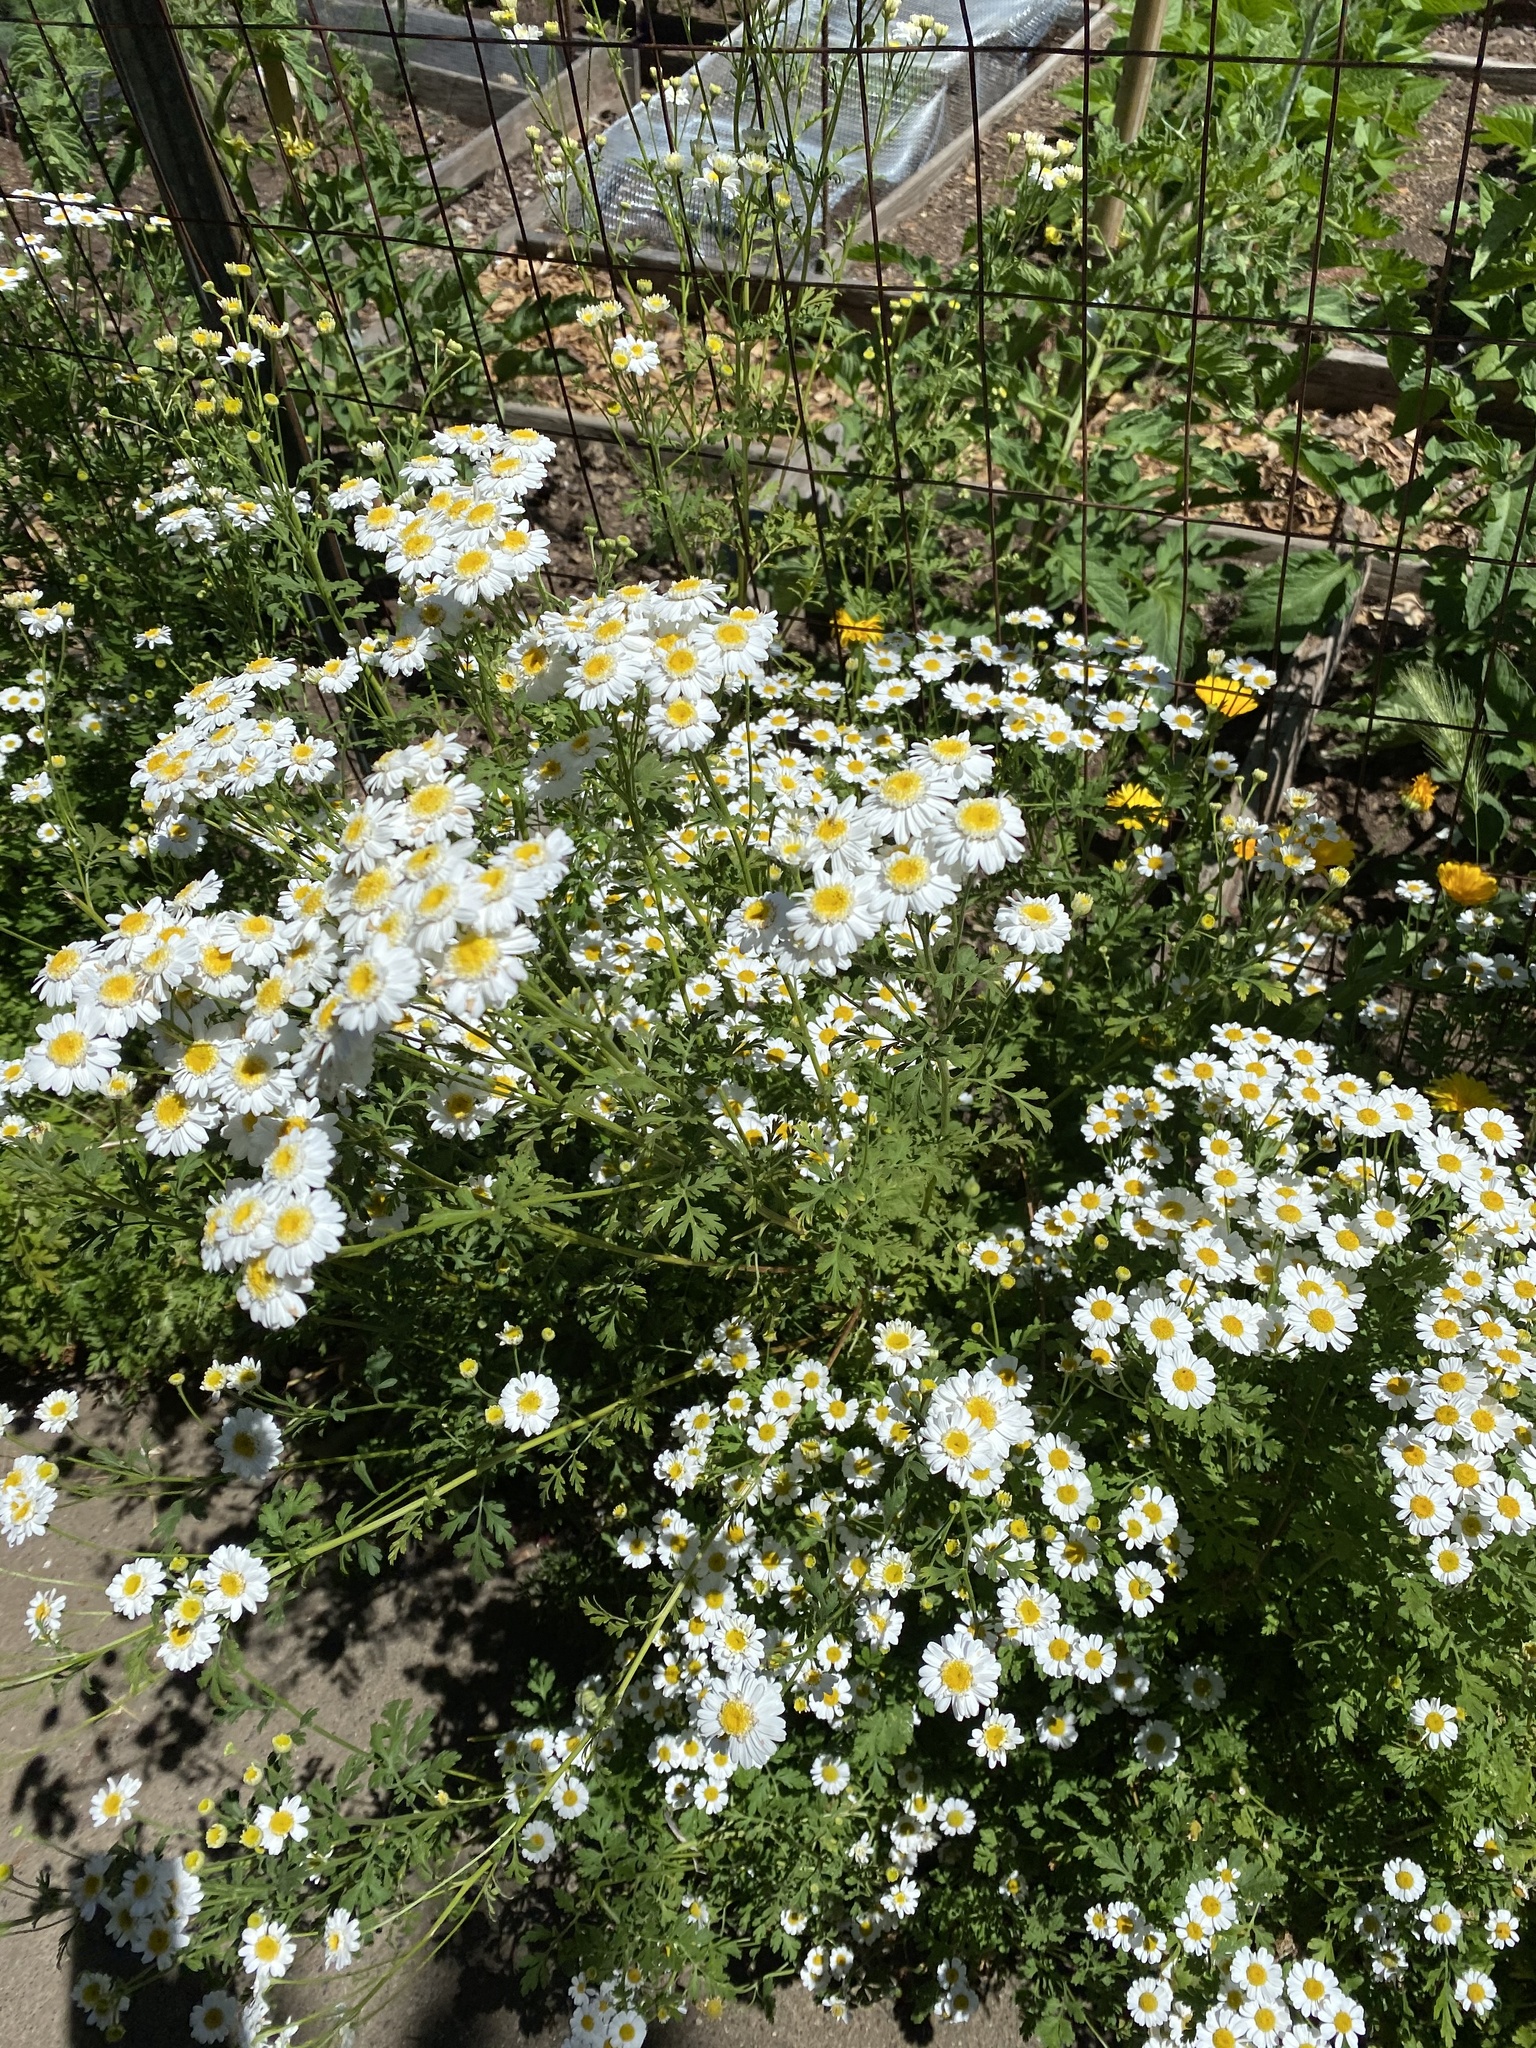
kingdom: Plantae
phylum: Tracheophyta
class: Magnoliopsida
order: Asterales
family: Asteraceae
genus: Tanacetum
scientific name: Tanacetum parthenium
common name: Feverfew
